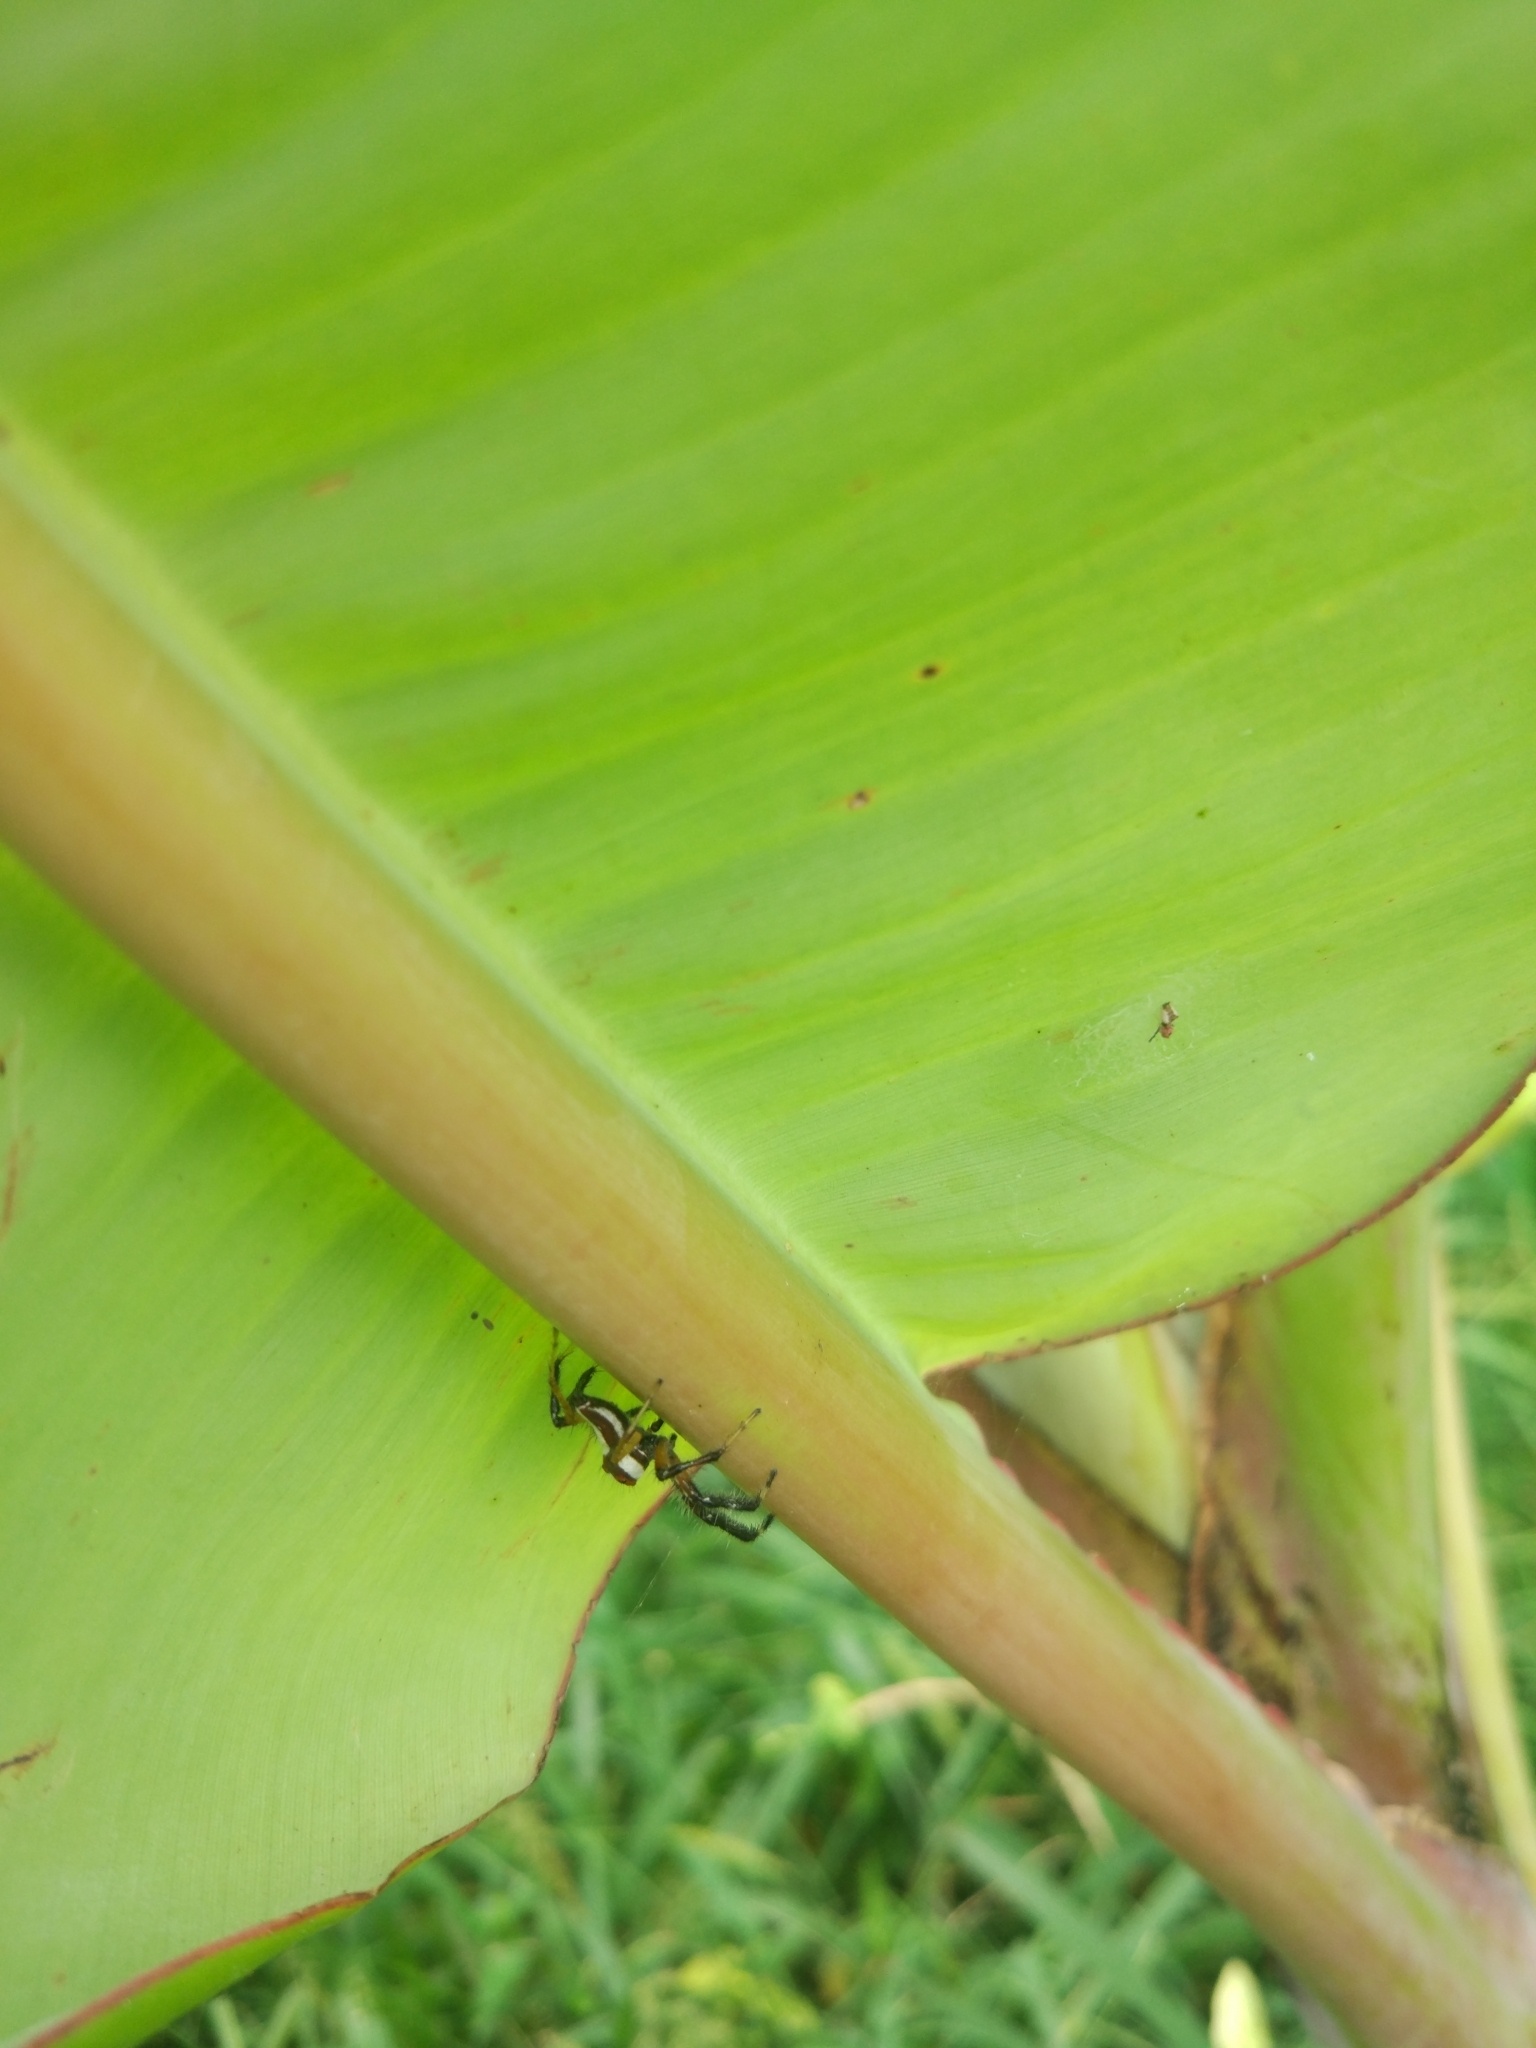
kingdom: Animalia
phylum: Arthropoda
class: Arachnida
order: Araneae
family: Salticidae
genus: Telamonia
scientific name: Telamonia dimidiata
